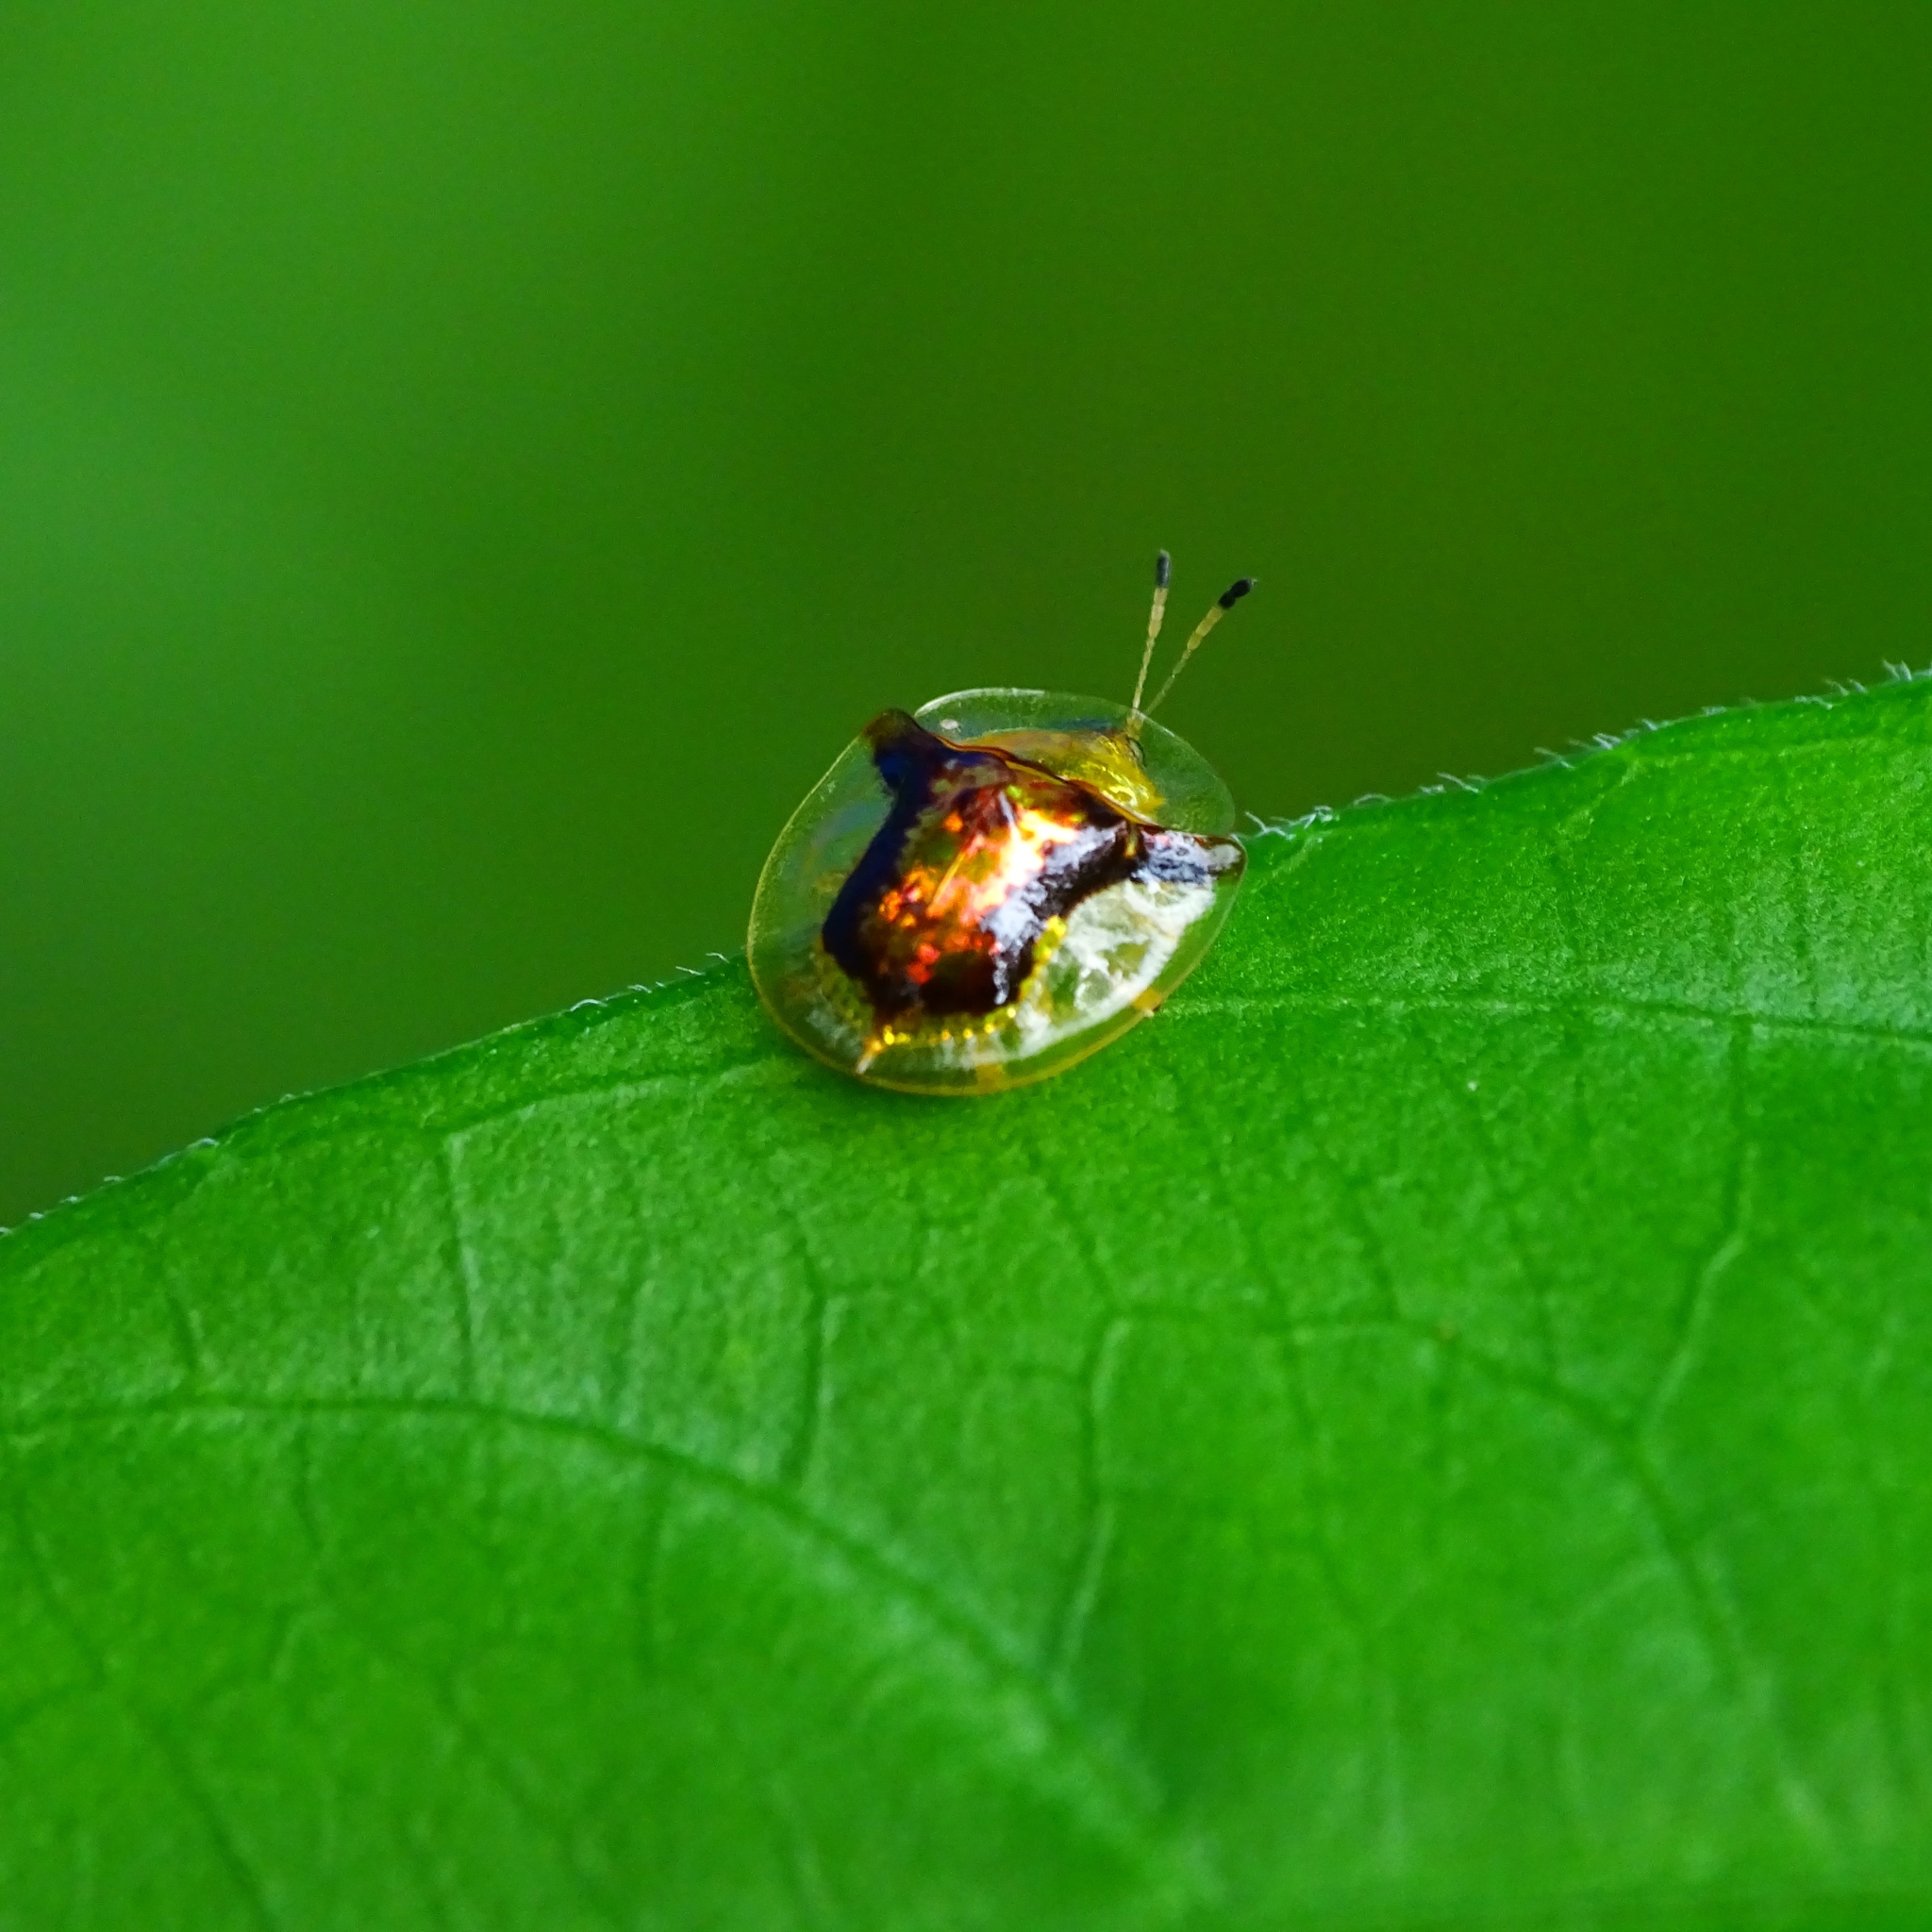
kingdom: Animalia
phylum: Arthropoda
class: Insecta
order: Coleoptera
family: Chrysomelidae
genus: Aspidimorpha
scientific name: Aspidimorpha furcata
